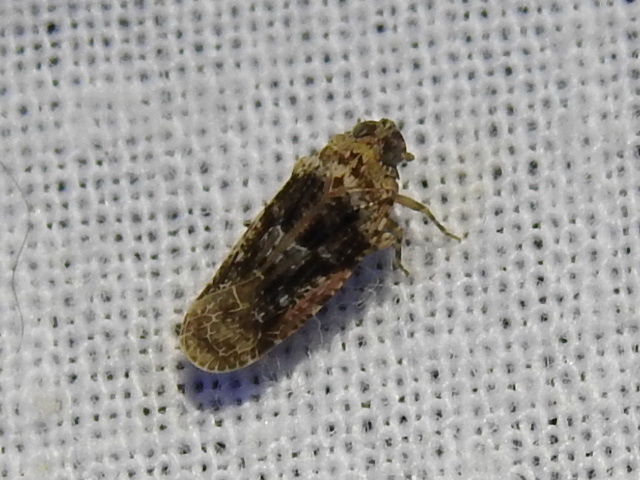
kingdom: Animalia
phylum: Arthropoda
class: Insecta
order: Hemiptera
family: Achilidae
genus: Catonia
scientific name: Catonia nava
